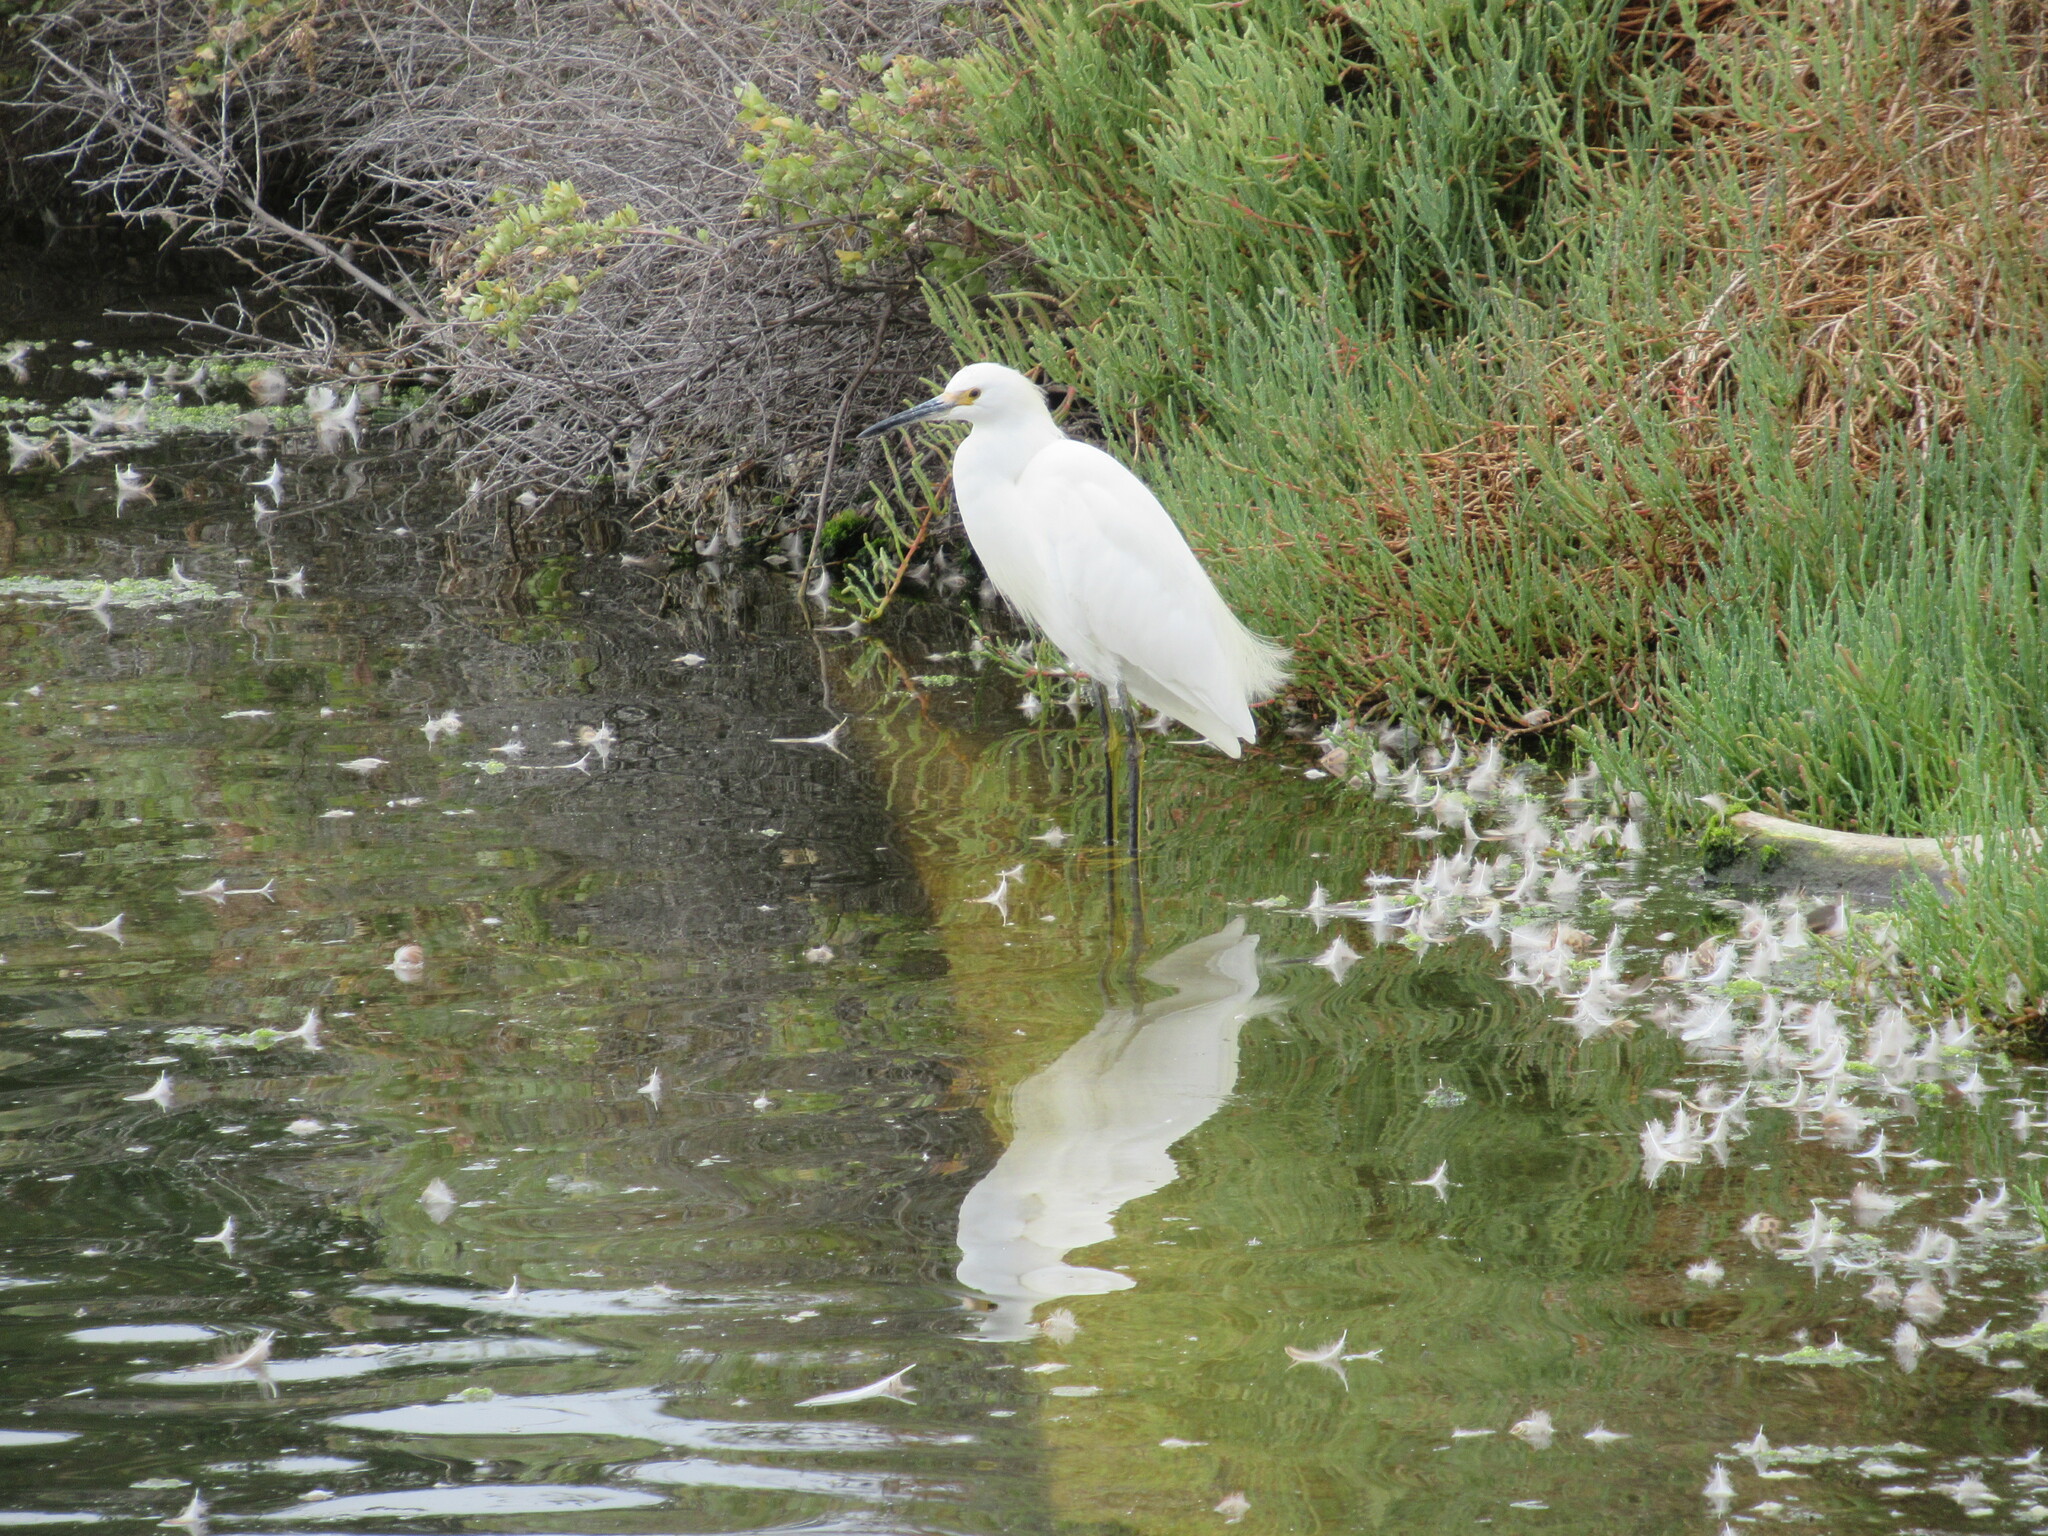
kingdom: Animalia
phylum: Chordata
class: Aves
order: Pelecaniformes
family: Ardeidae
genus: Egretta
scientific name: Egretta thula
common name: Snowy egret
